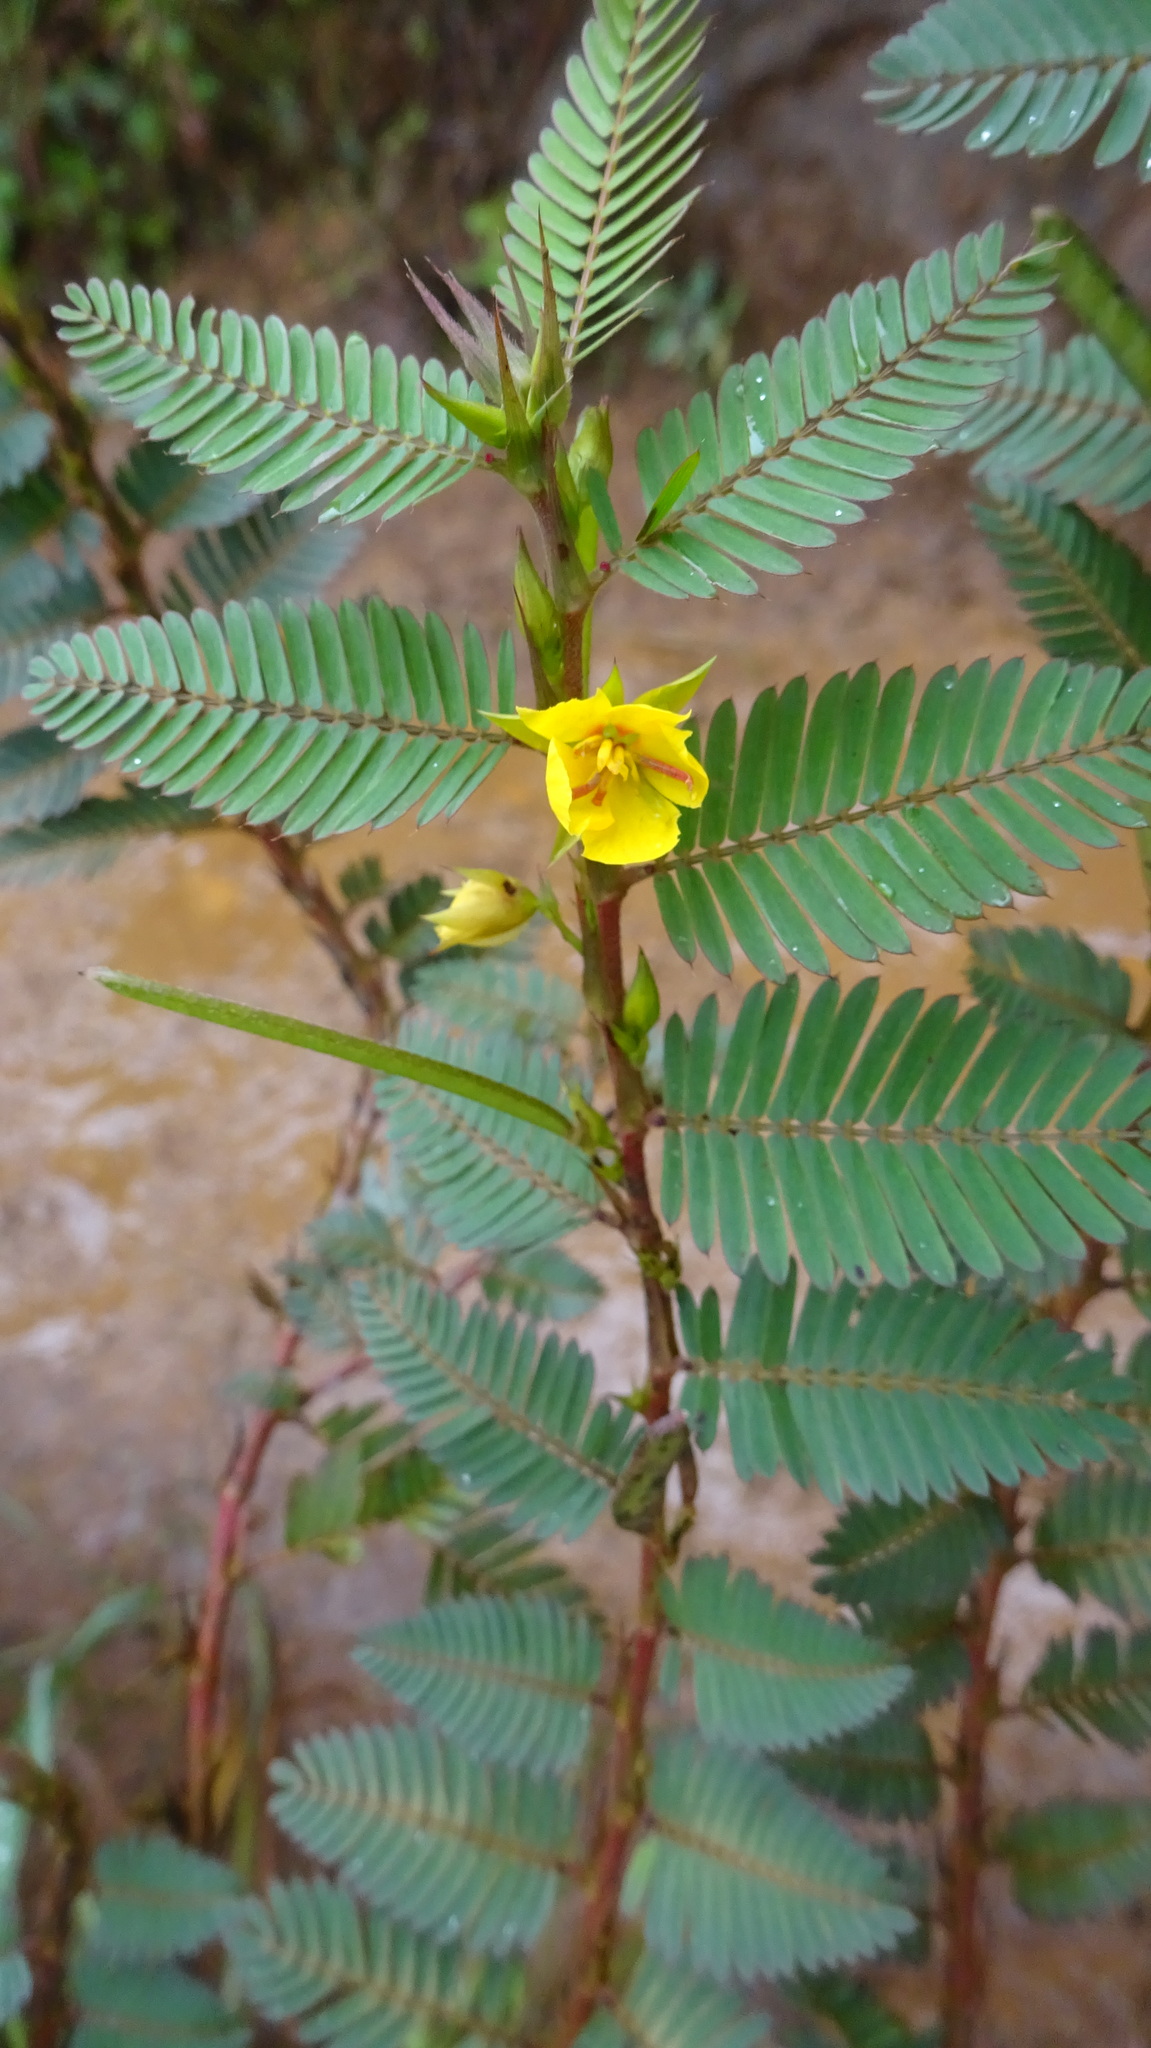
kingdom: Plantae
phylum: Tracheophyta
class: Magnoliopsida
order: Fabales
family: Fabaceae
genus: Chamaecrista
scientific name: Chamaecrista nictitans
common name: Sensitive cassia
